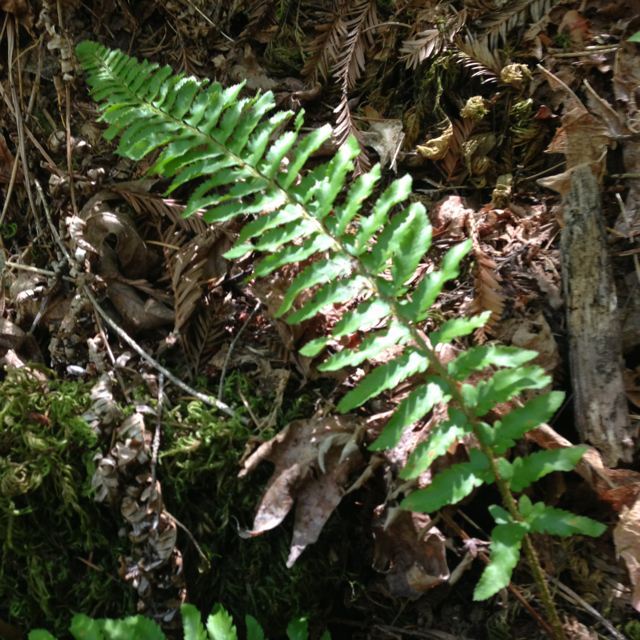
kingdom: Plantae
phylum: Tracheophyta
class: Polypodiopsida
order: Polypodiales
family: Dryopteridaceae
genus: Polystichum
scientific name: Polystichum
